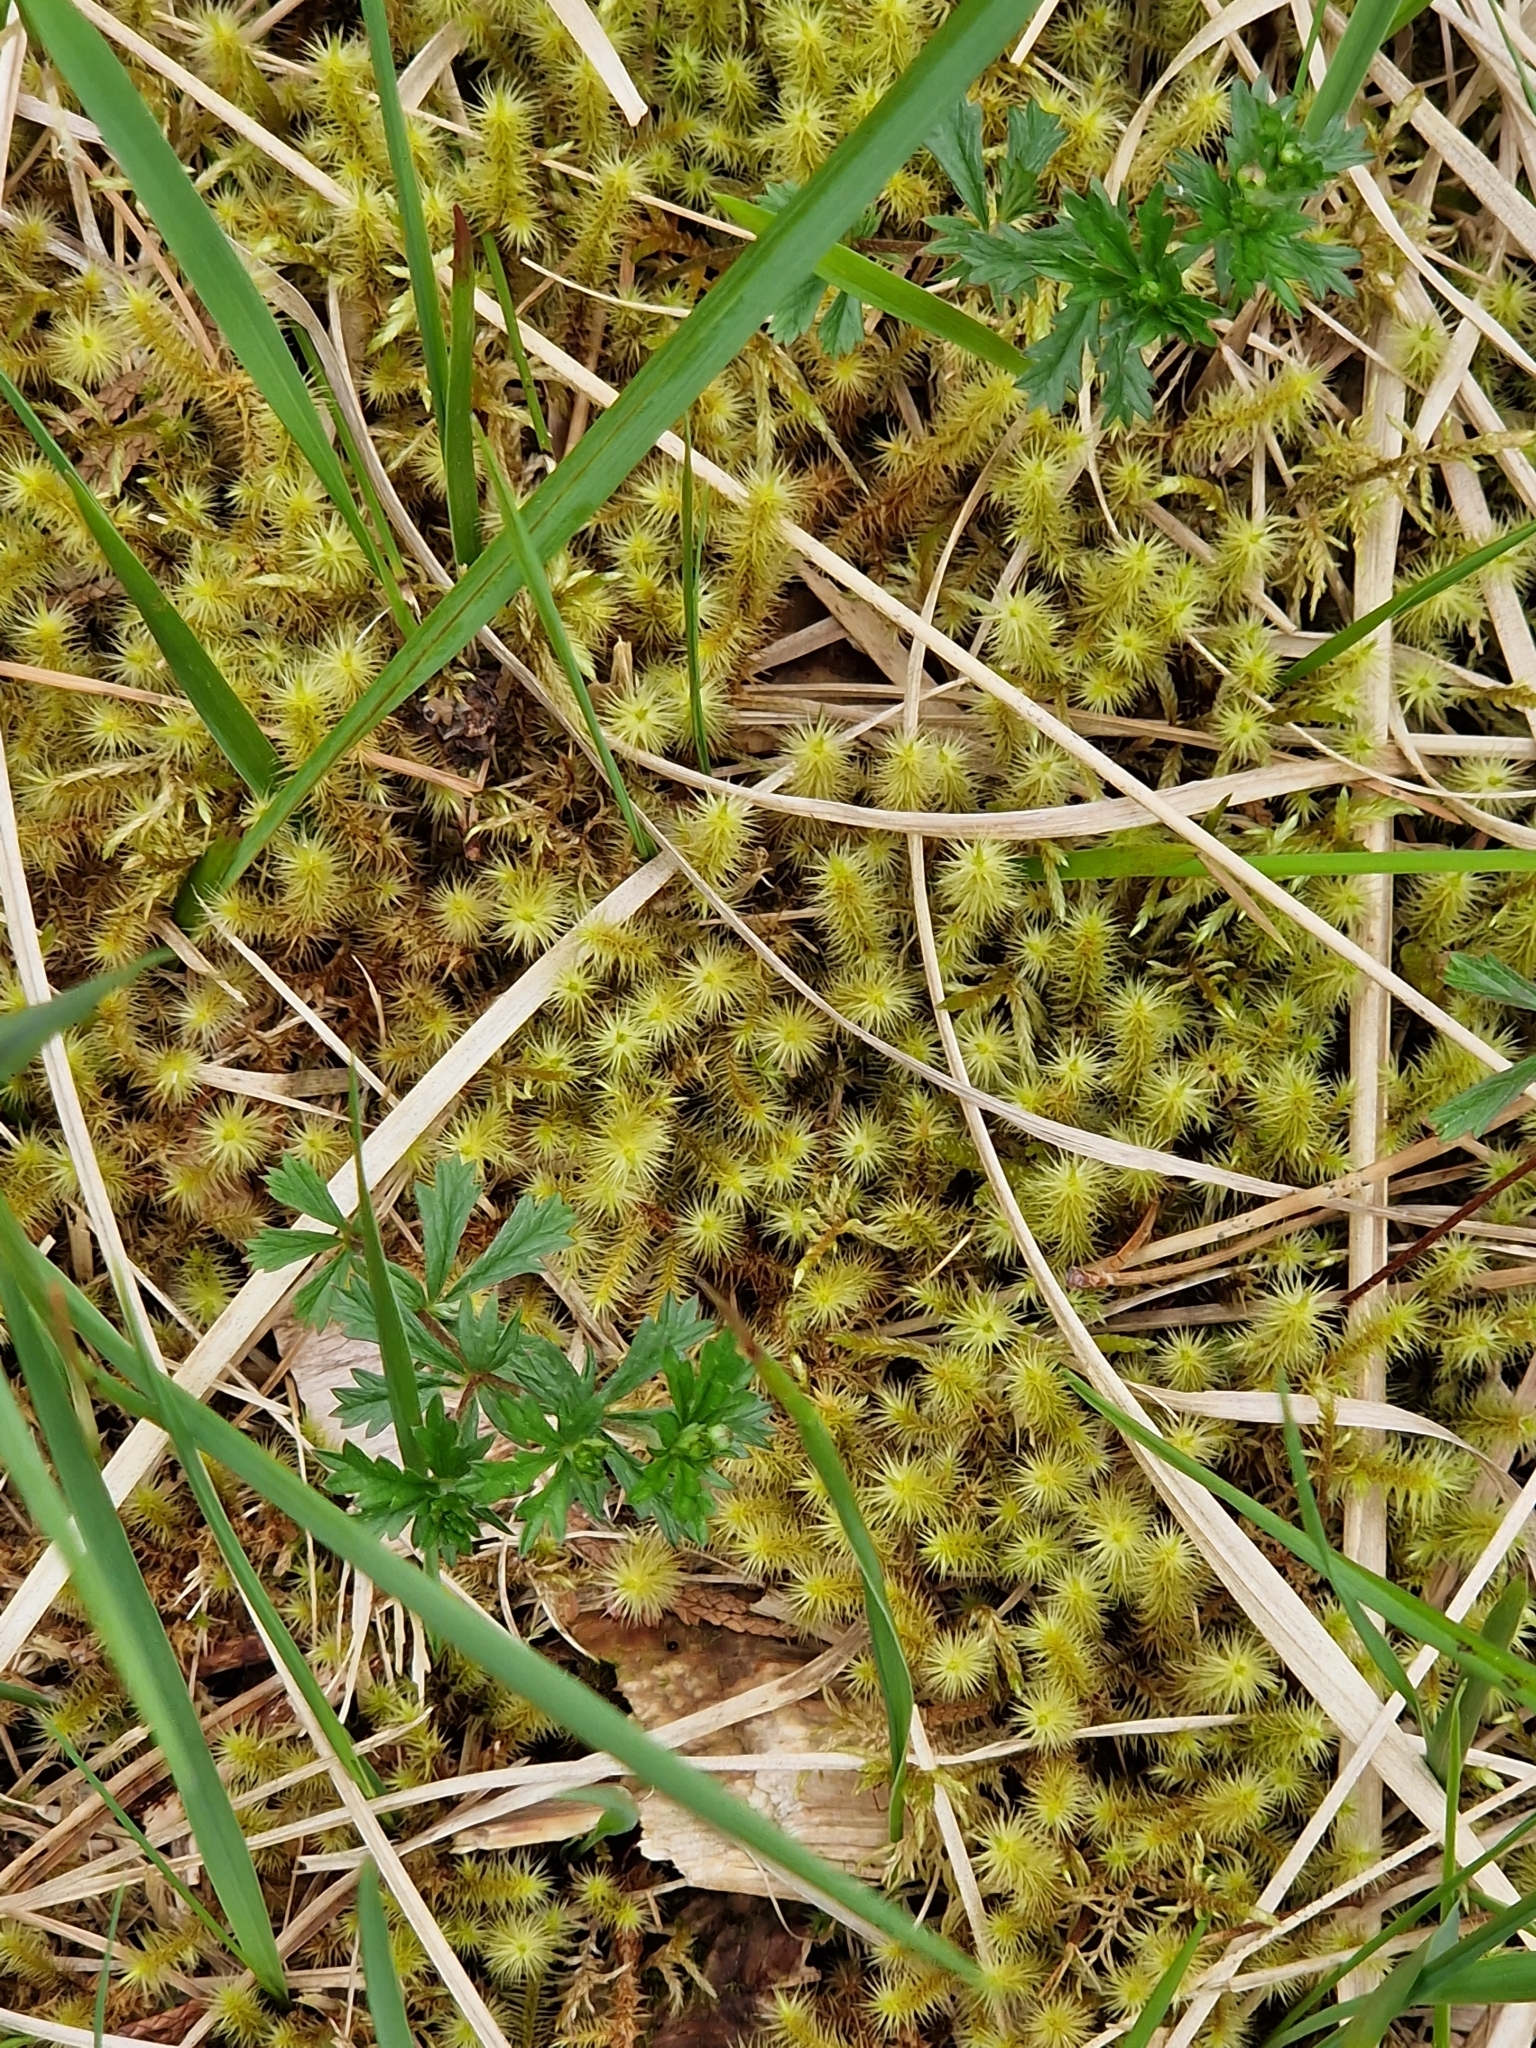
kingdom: Plantae
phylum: Bryophyta
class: Bryopsida
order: Bartramiales
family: Bartramiaceae
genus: Breutelia
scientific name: Breutelia chrysocoma
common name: Bottle-brush moss
